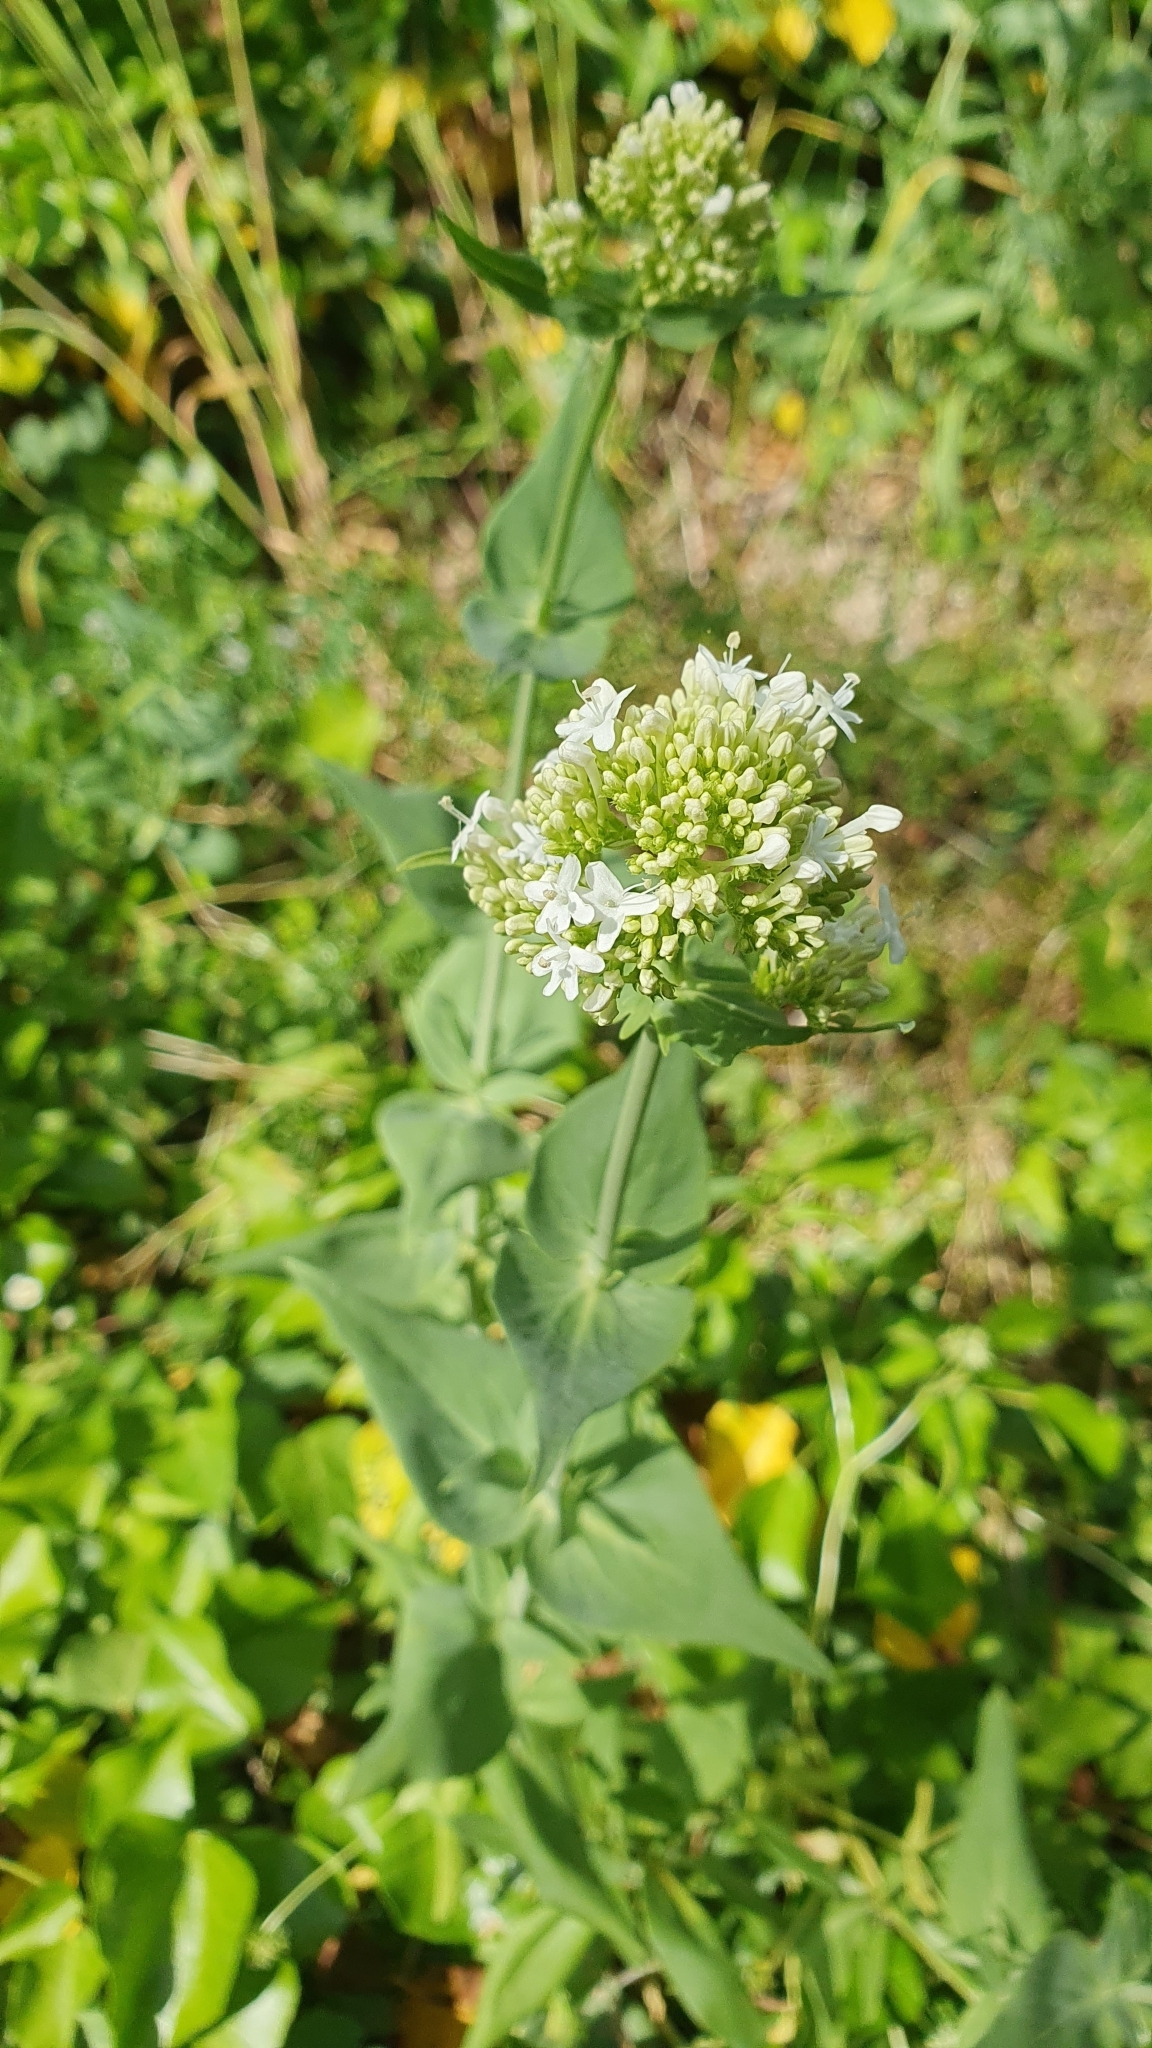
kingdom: Plantae
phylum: Tracheophyta
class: Magnoliopsida
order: Dipsacales
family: Caprifoliaceae
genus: Centranthus
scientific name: Centranthus ruber
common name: Red valerian
